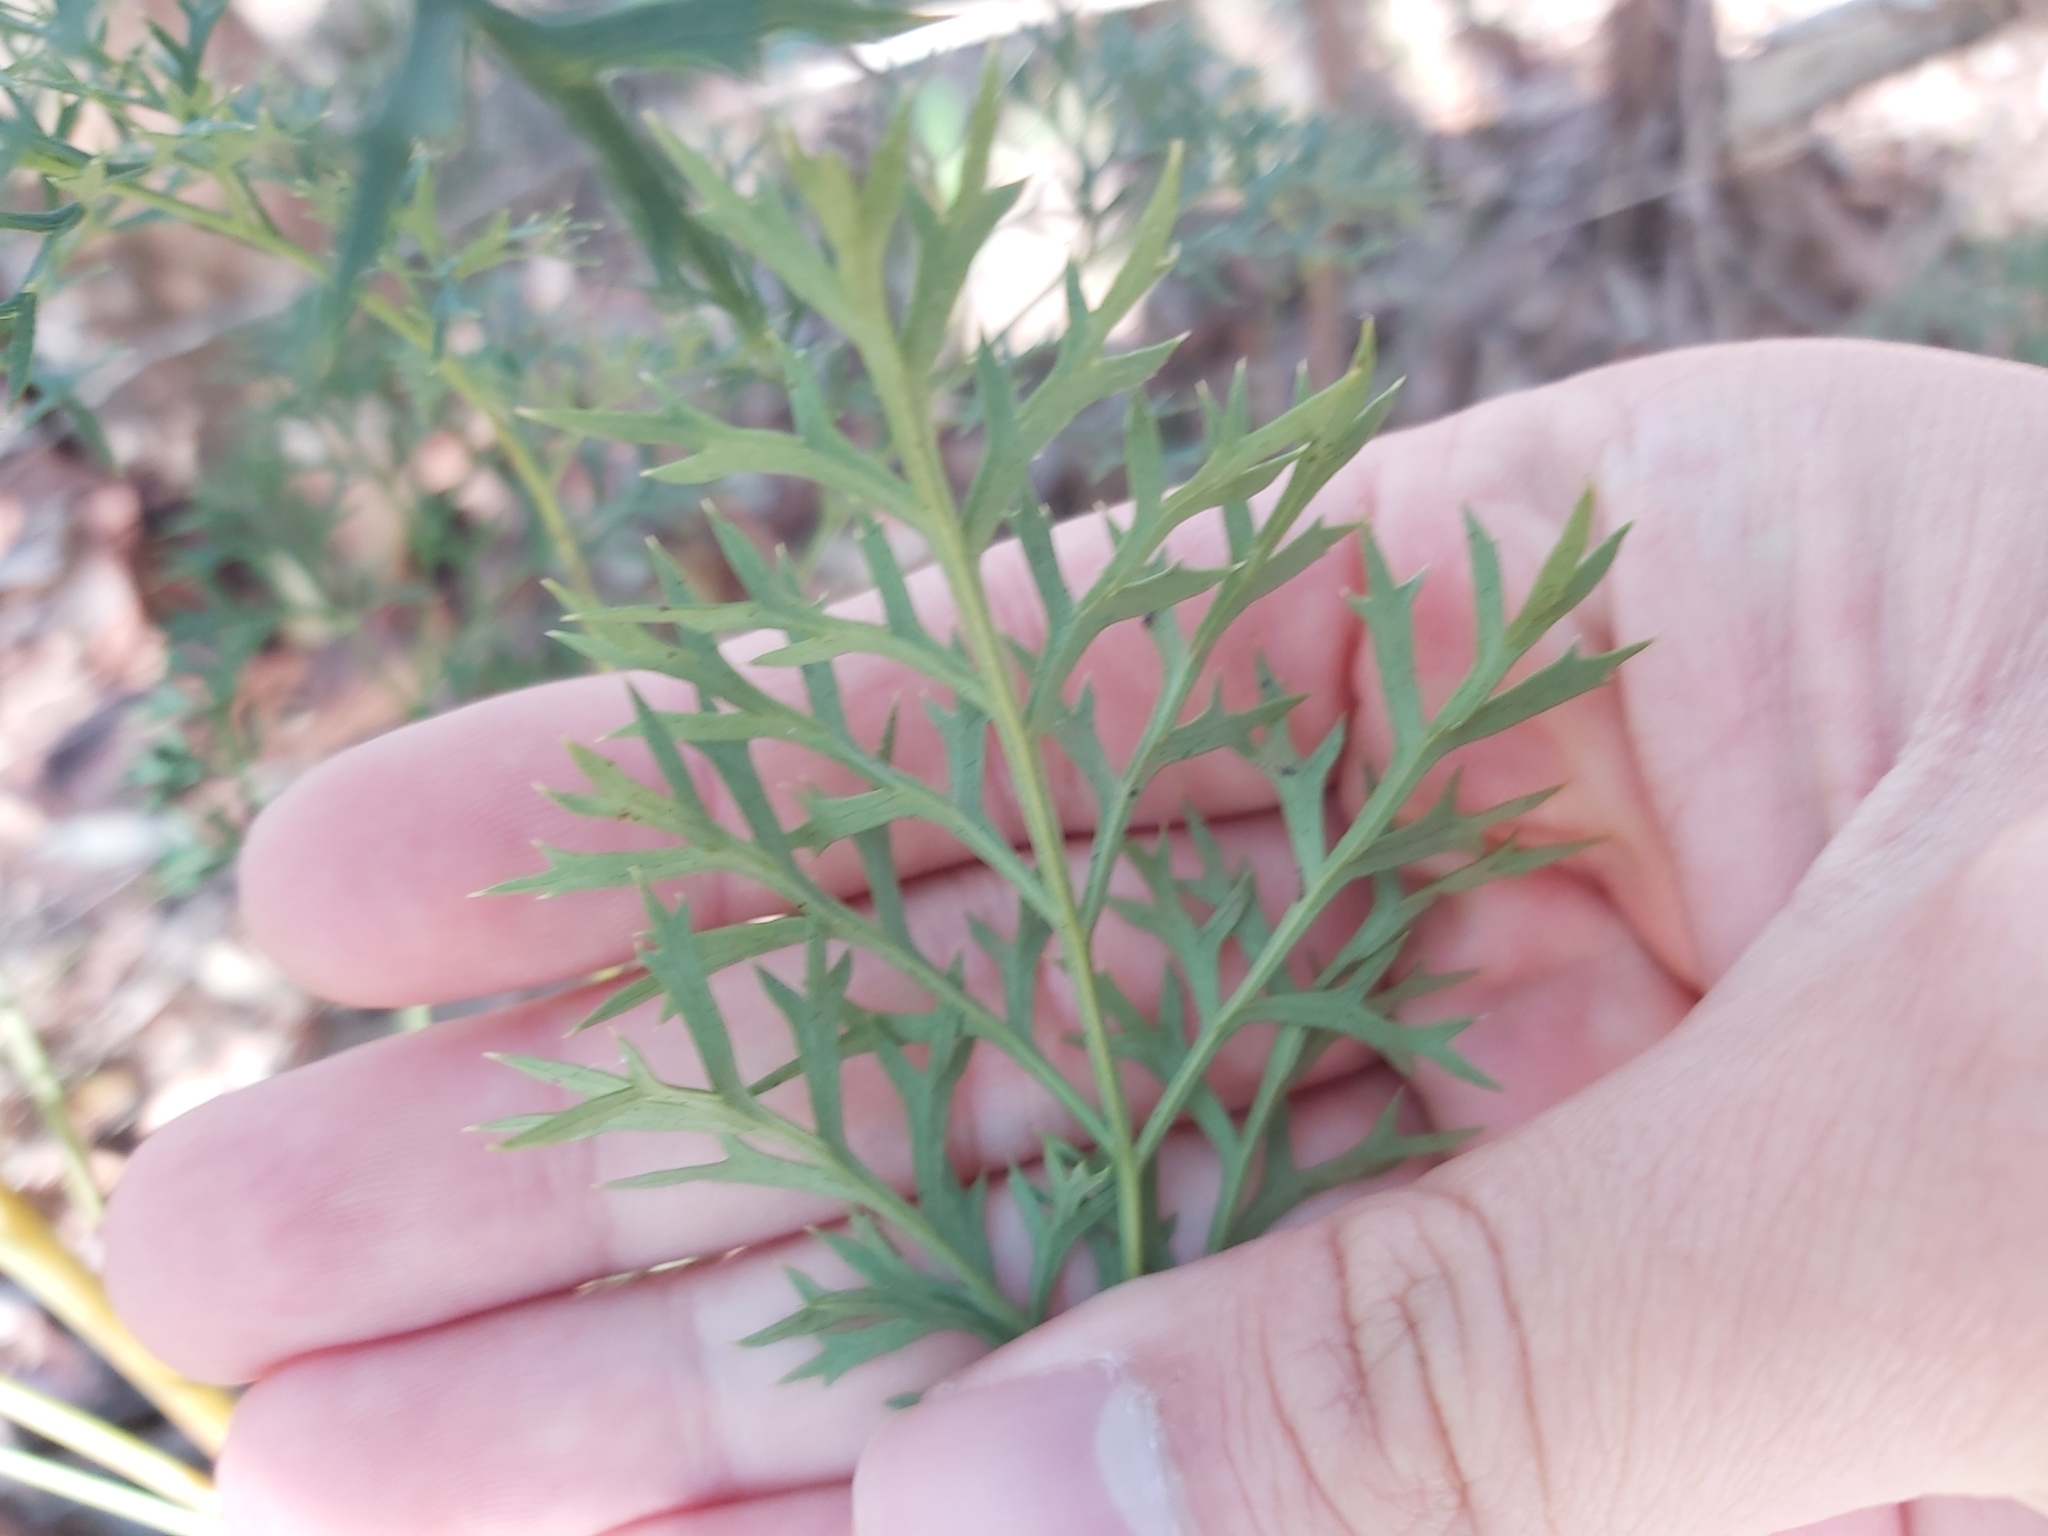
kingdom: Plantae
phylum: Tracheophyta
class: Magnoliopsida
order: Proteales
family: Proteaceae
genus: Lomatia
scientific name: Lomatia silaifolia
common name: Crinklebush
